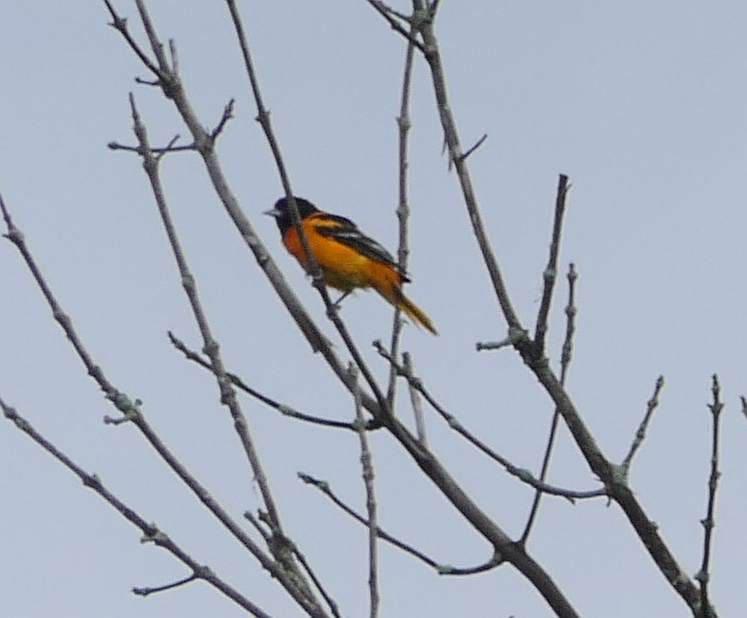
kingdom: Animalia
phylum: Chordata
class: Aves
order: Passeriformes
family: Icteridae
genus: Icterus
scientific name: Icterus galbula
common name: Baltimore oriole
